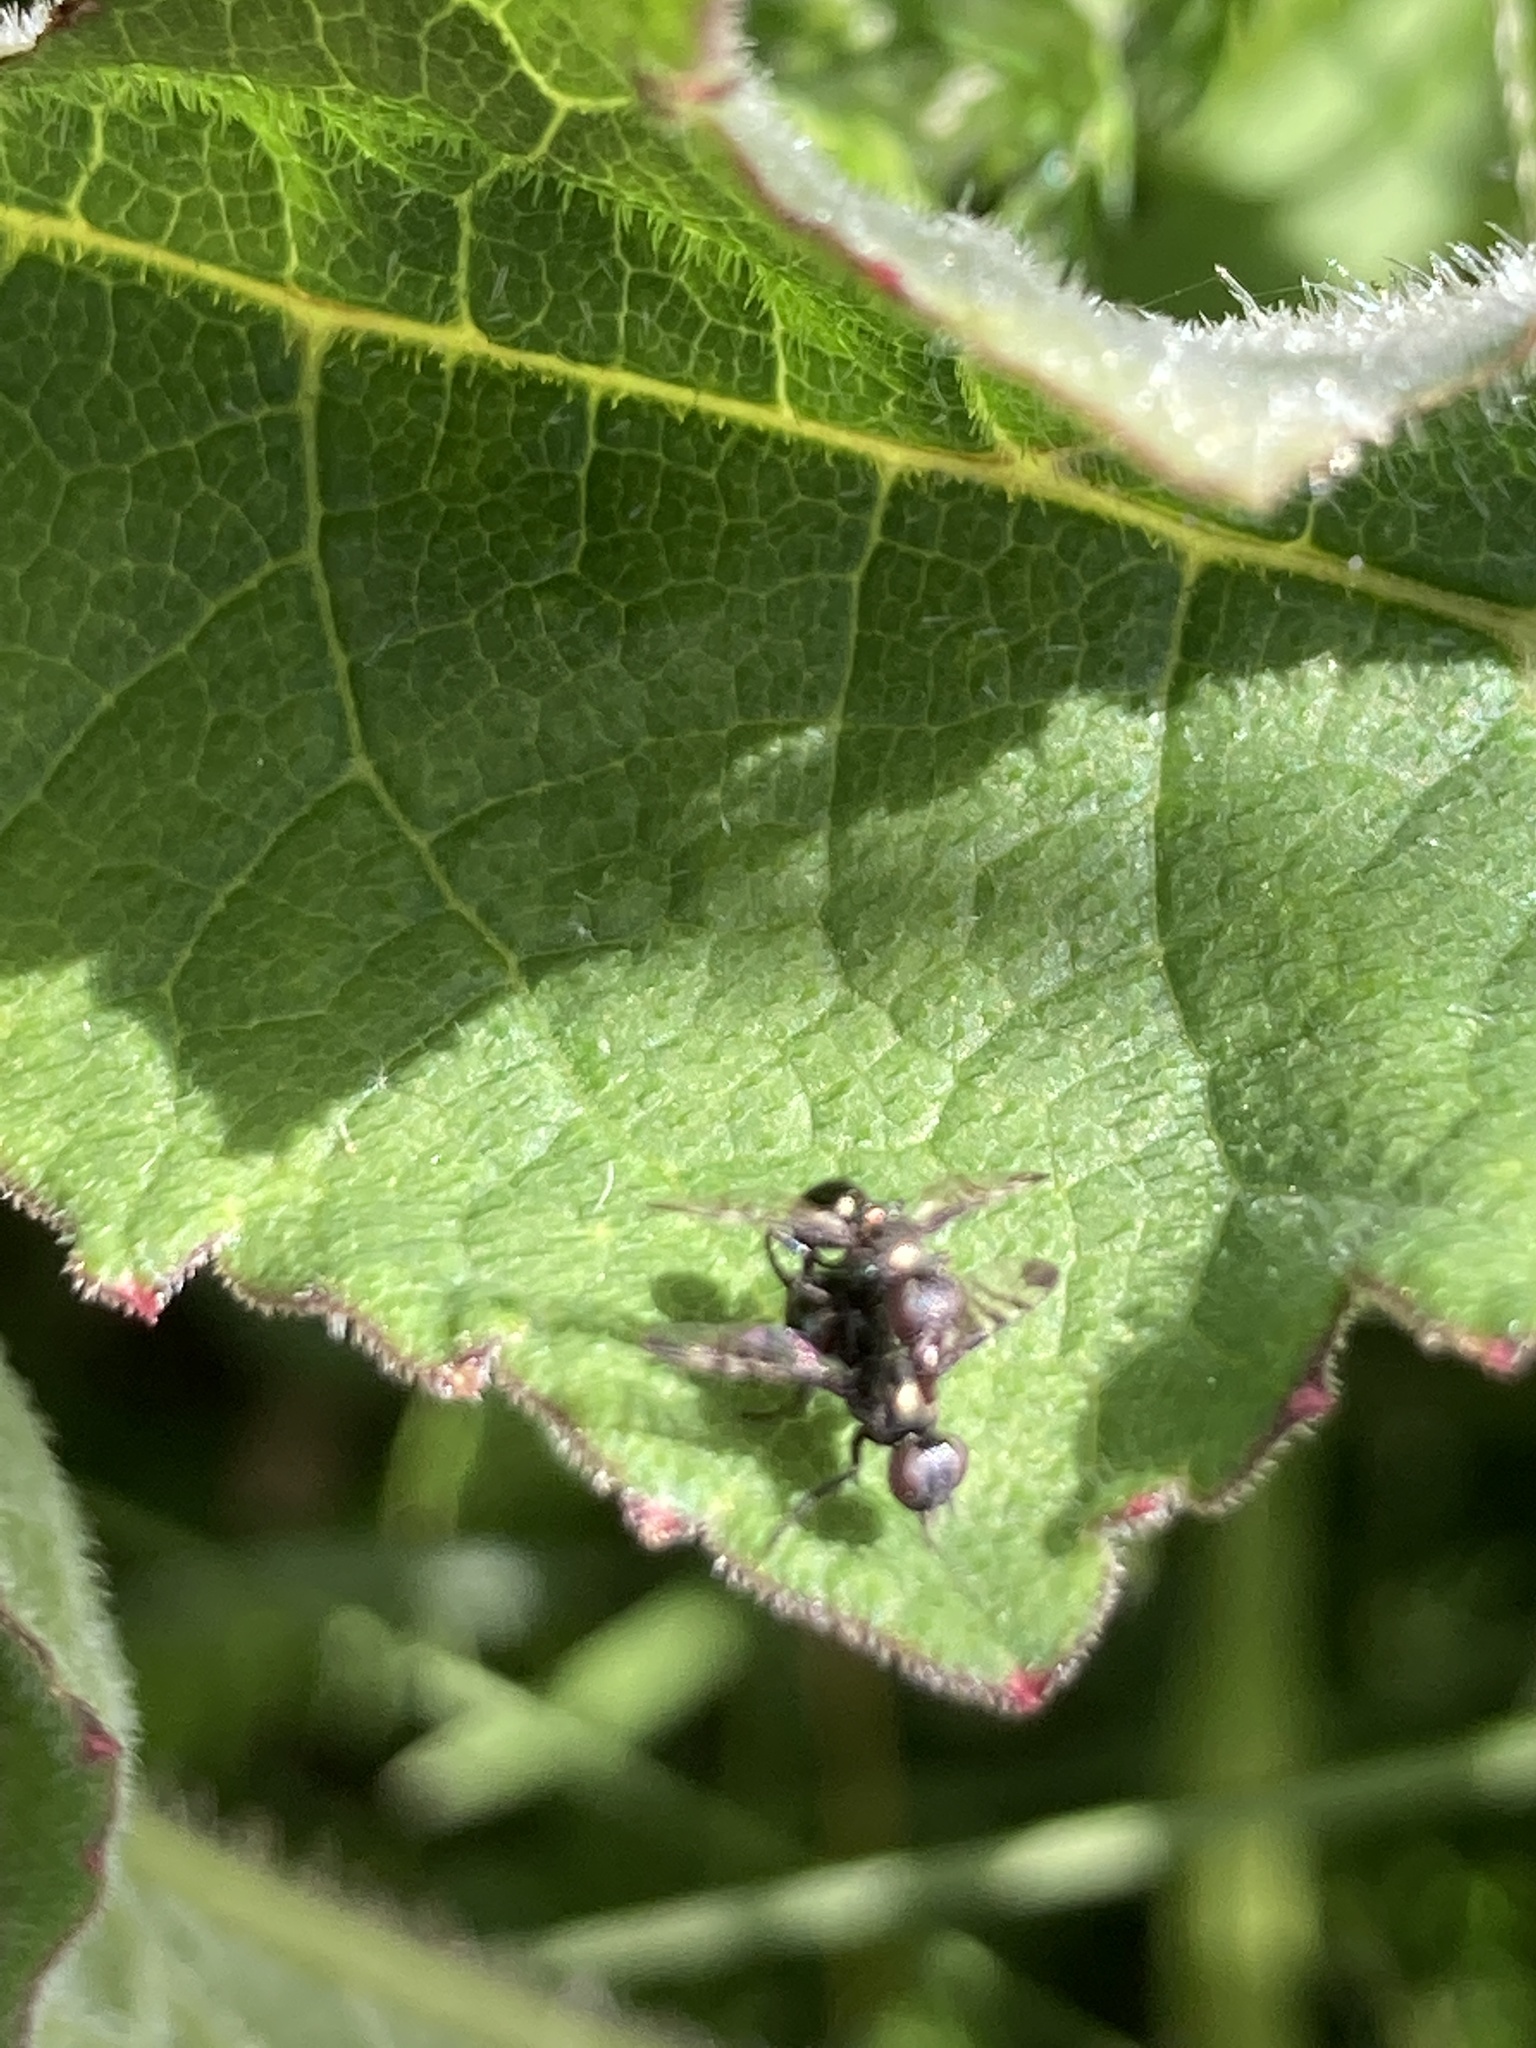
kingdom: Animalia
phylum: Arthropoda
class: Insecta
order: Diptera
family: Platystomatidae
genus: Rivellia
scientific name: Rivellia syngenesiae
